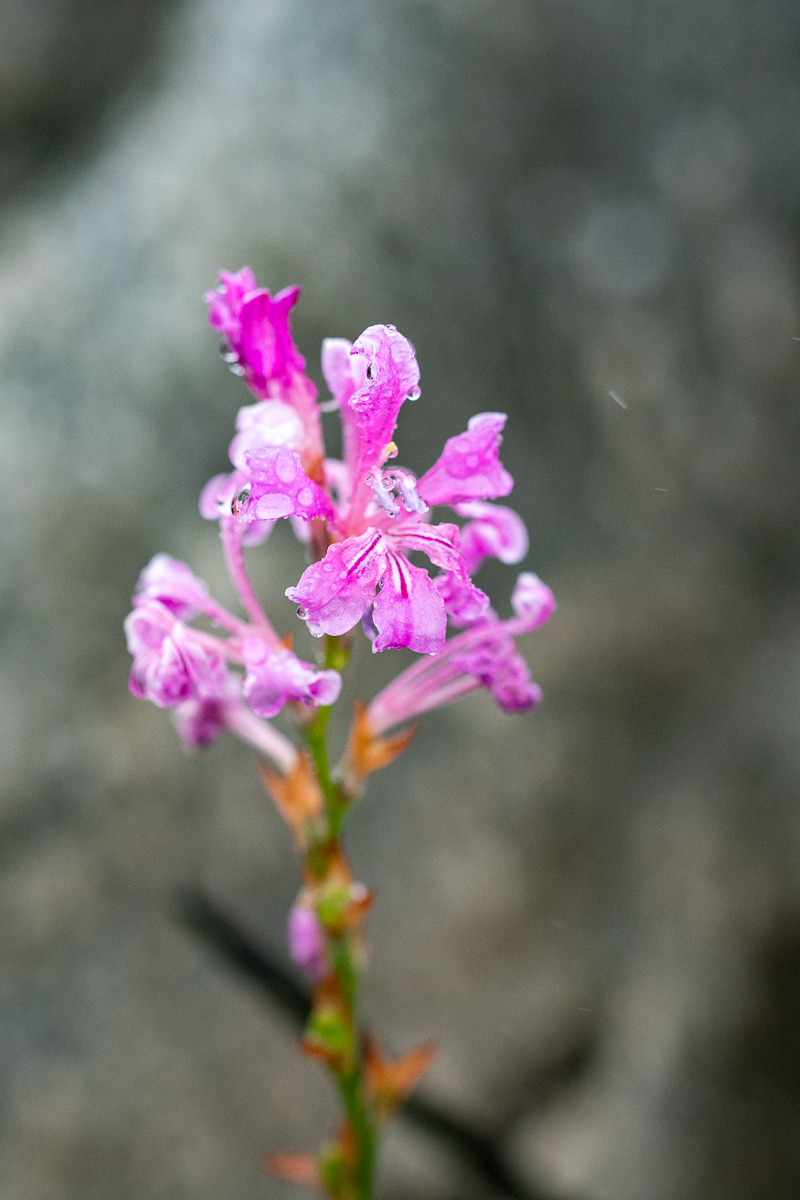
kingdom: Plantae
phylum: Tracheophyta
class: Liliopsida
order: Asparagales
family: Iridaceae
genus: Tritoniopsis
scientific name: Tritoniopsis lata
